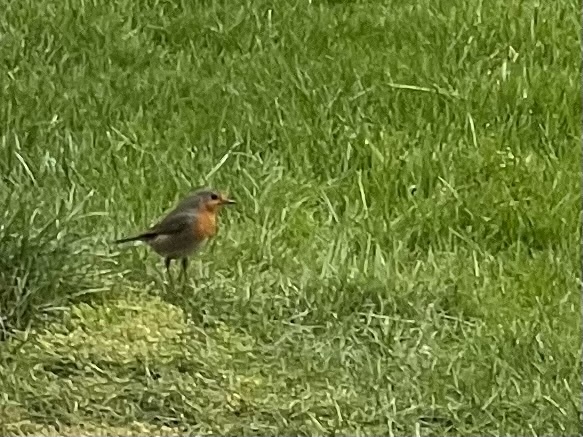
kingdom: Animalia
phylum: Chordata
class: Aves
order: Passeriformes
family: Muscicapidae
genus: Erithacus
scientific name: Erithacus rubecula
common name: European robin
